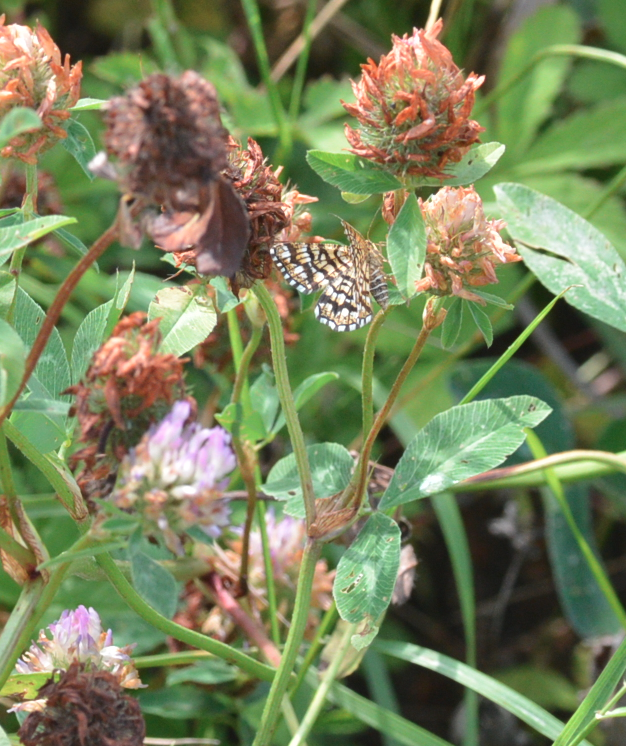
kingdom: Animalia
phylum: Arthropoda
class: Insecta
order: Lepidoptera
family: Geometridae
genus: Chiasmia
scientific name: Chiasmia clathrata
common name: Latticed heath
